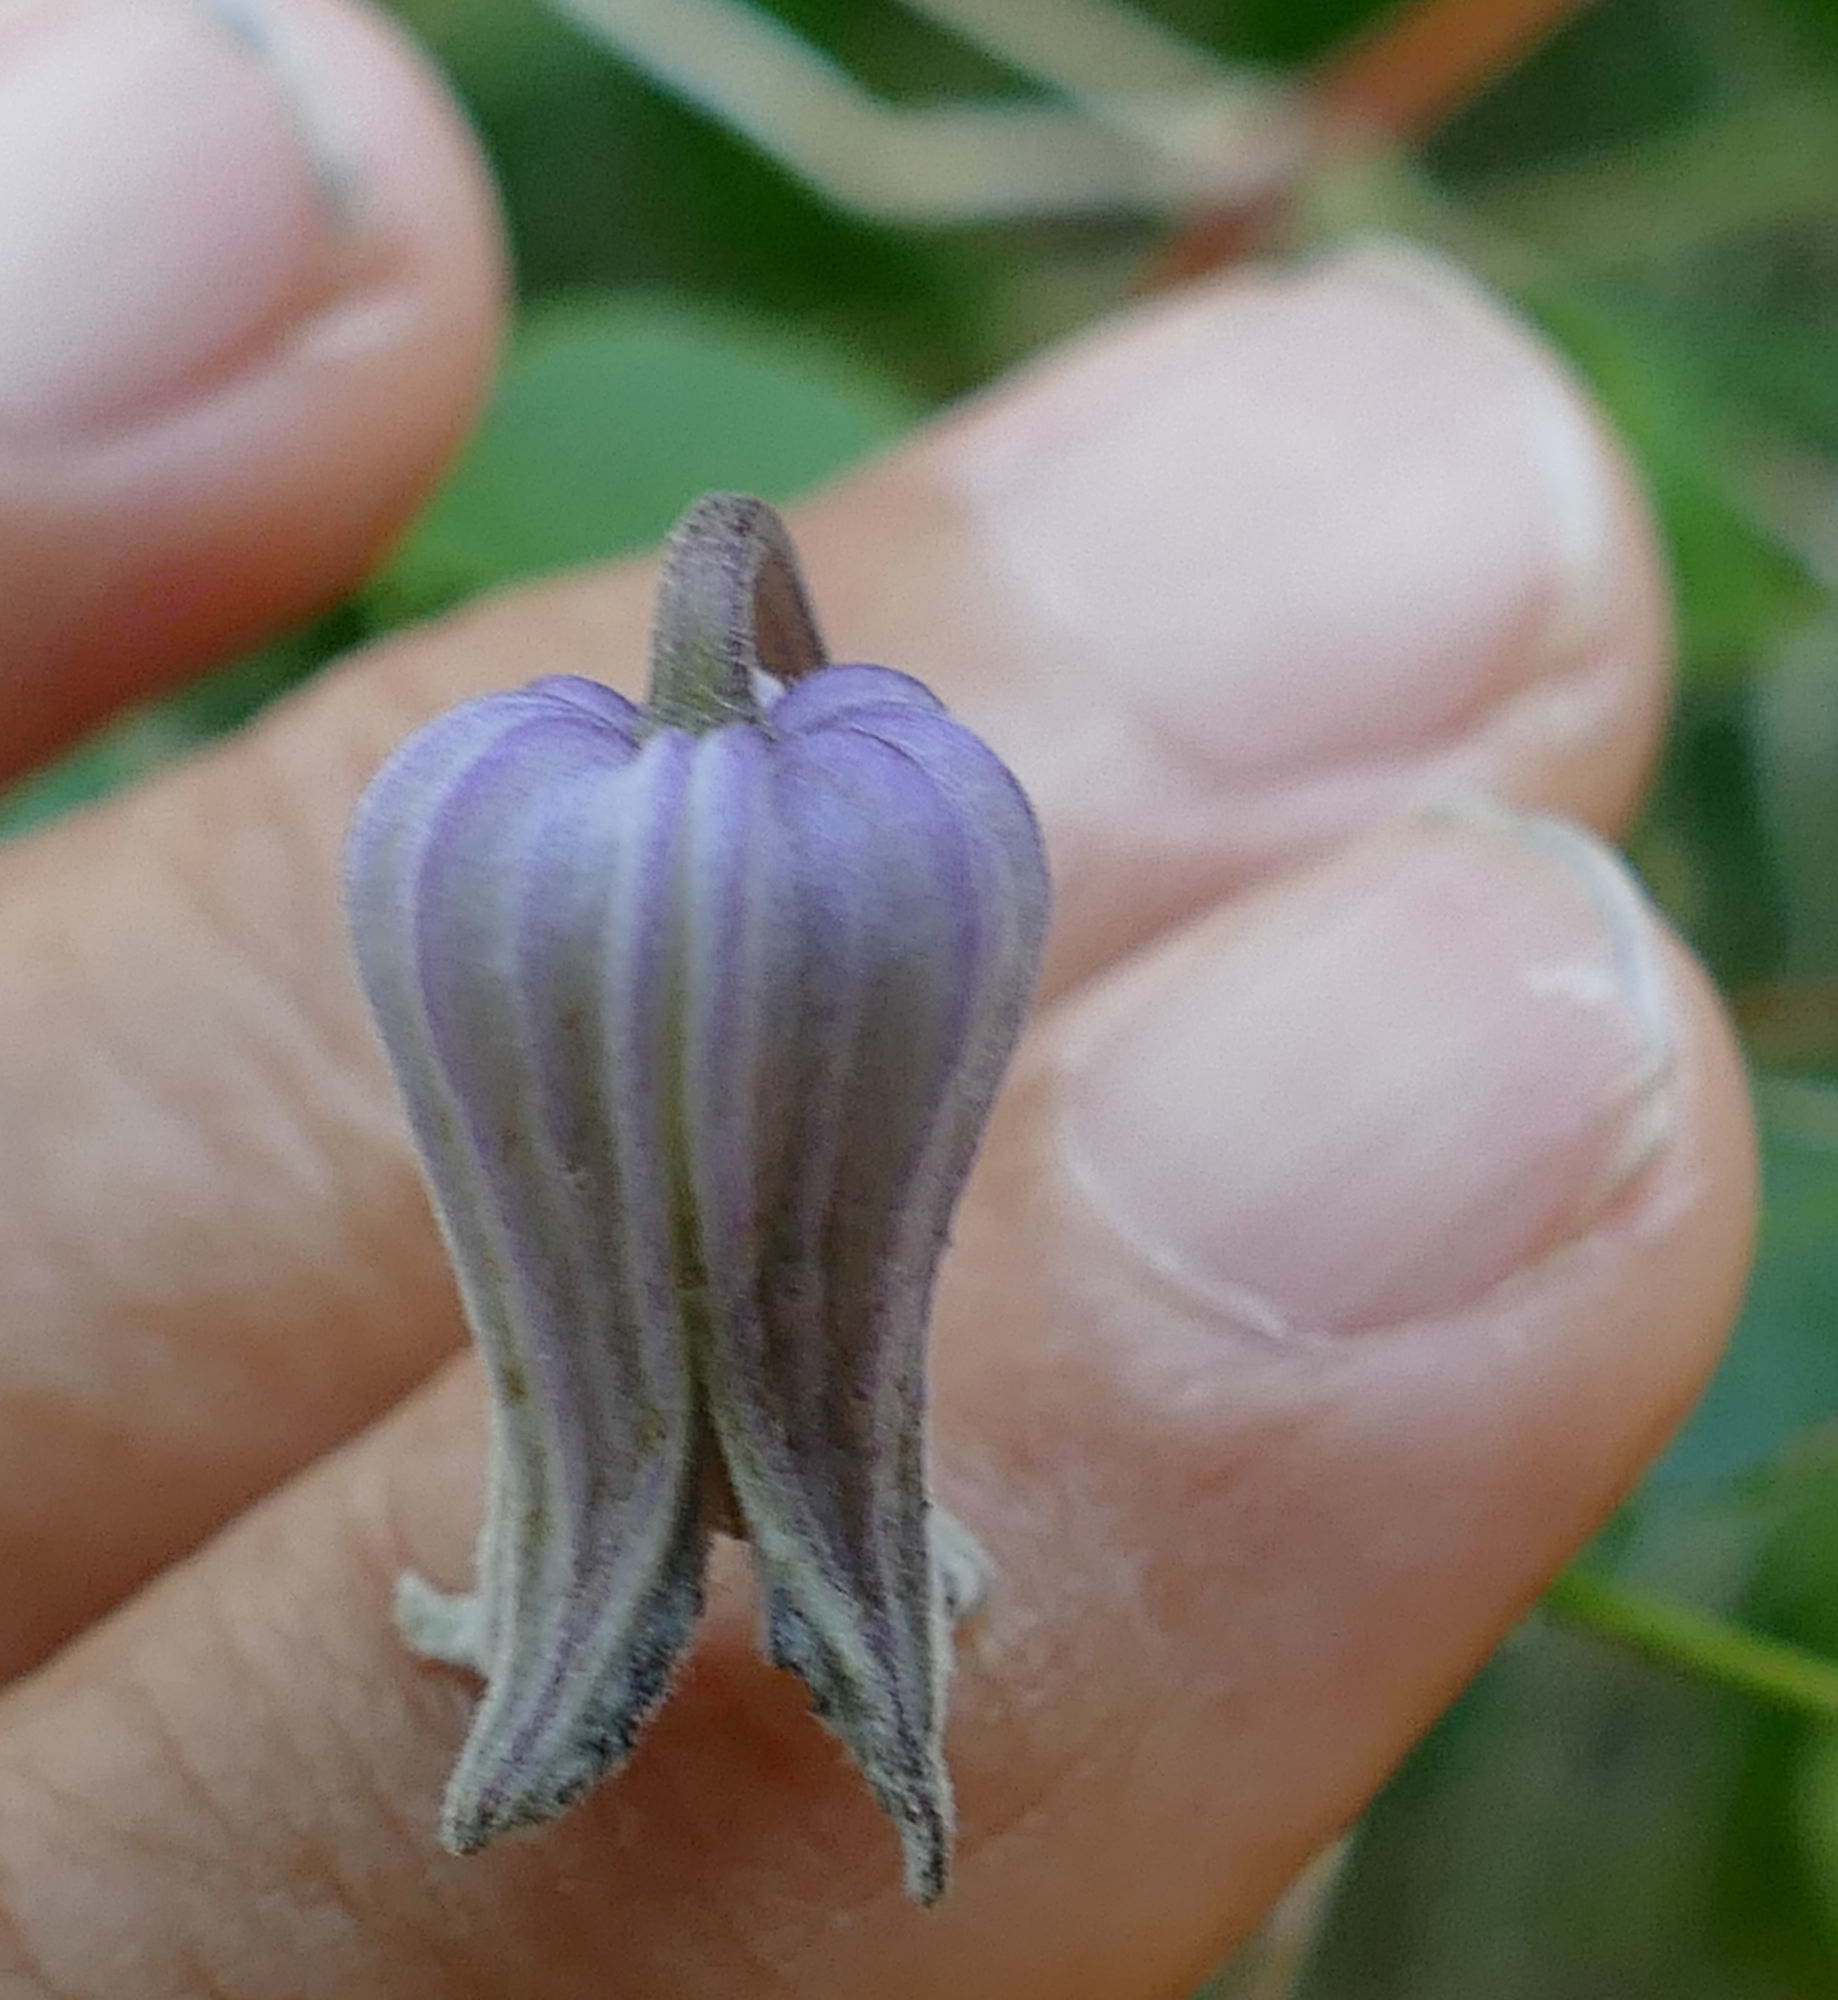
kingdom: Plantae
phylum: Tracheophyta
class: Magnoliopsida
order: Ranunculales
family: Ranunculaceae
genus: Clematis
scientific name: Clematis pitcheri
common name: Bellflower clematis
